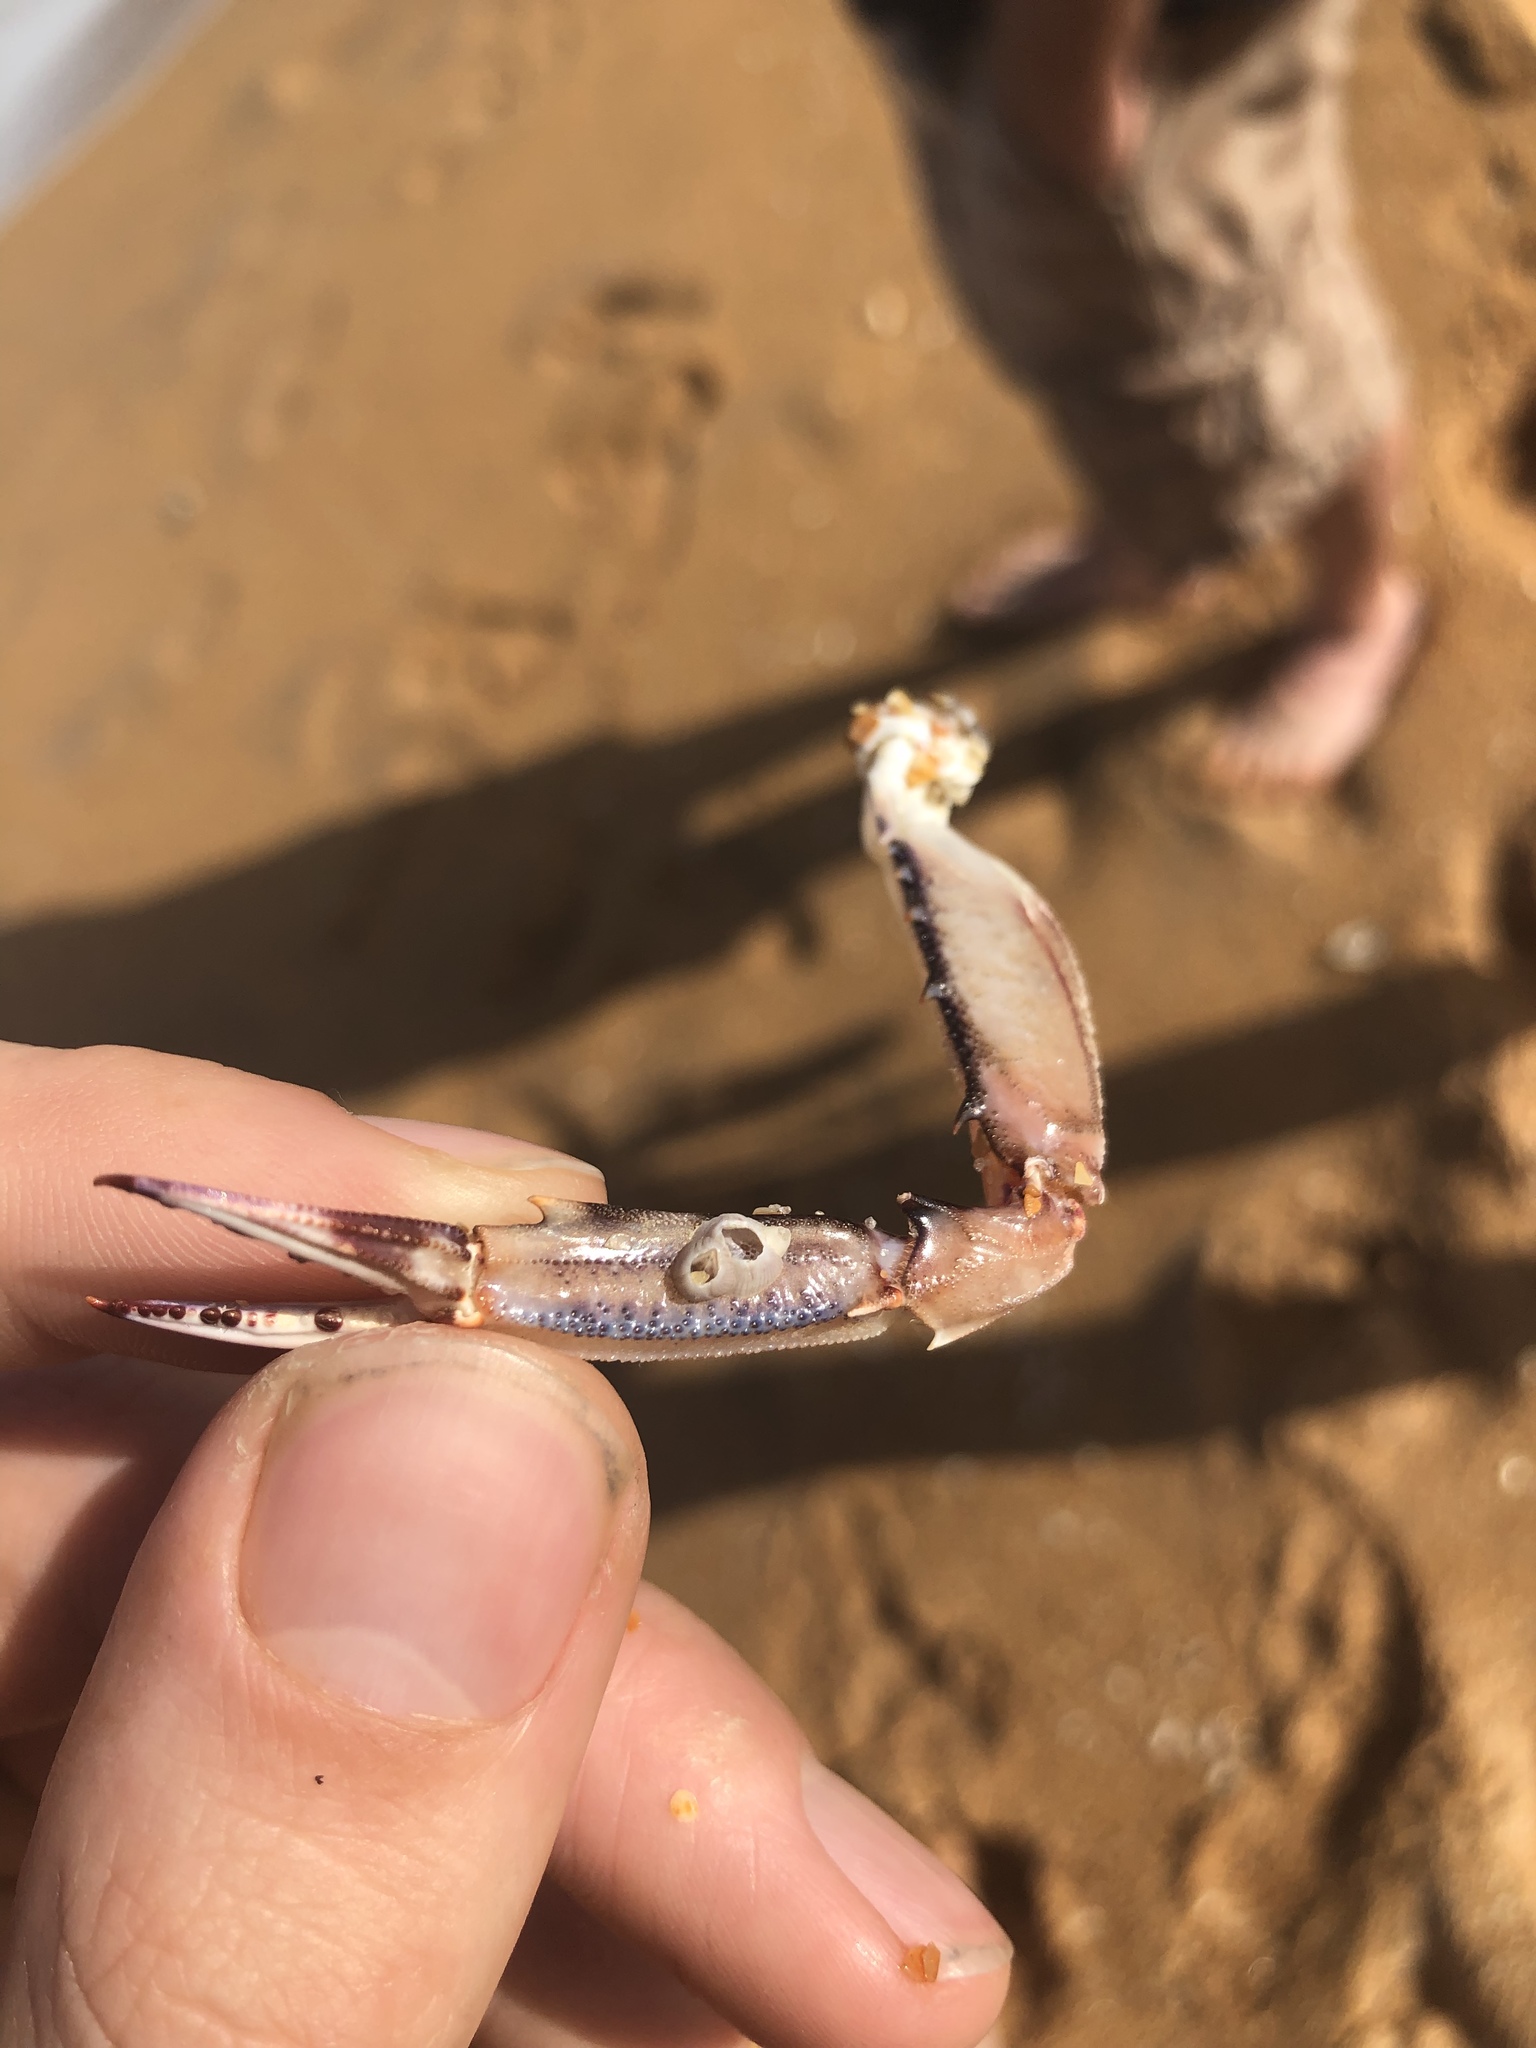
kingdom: Animalia
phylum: Arthropoda
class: Malacostraca
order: Decapoda
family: Portunidae
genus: Achelous
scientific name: Achelous gibbesii
